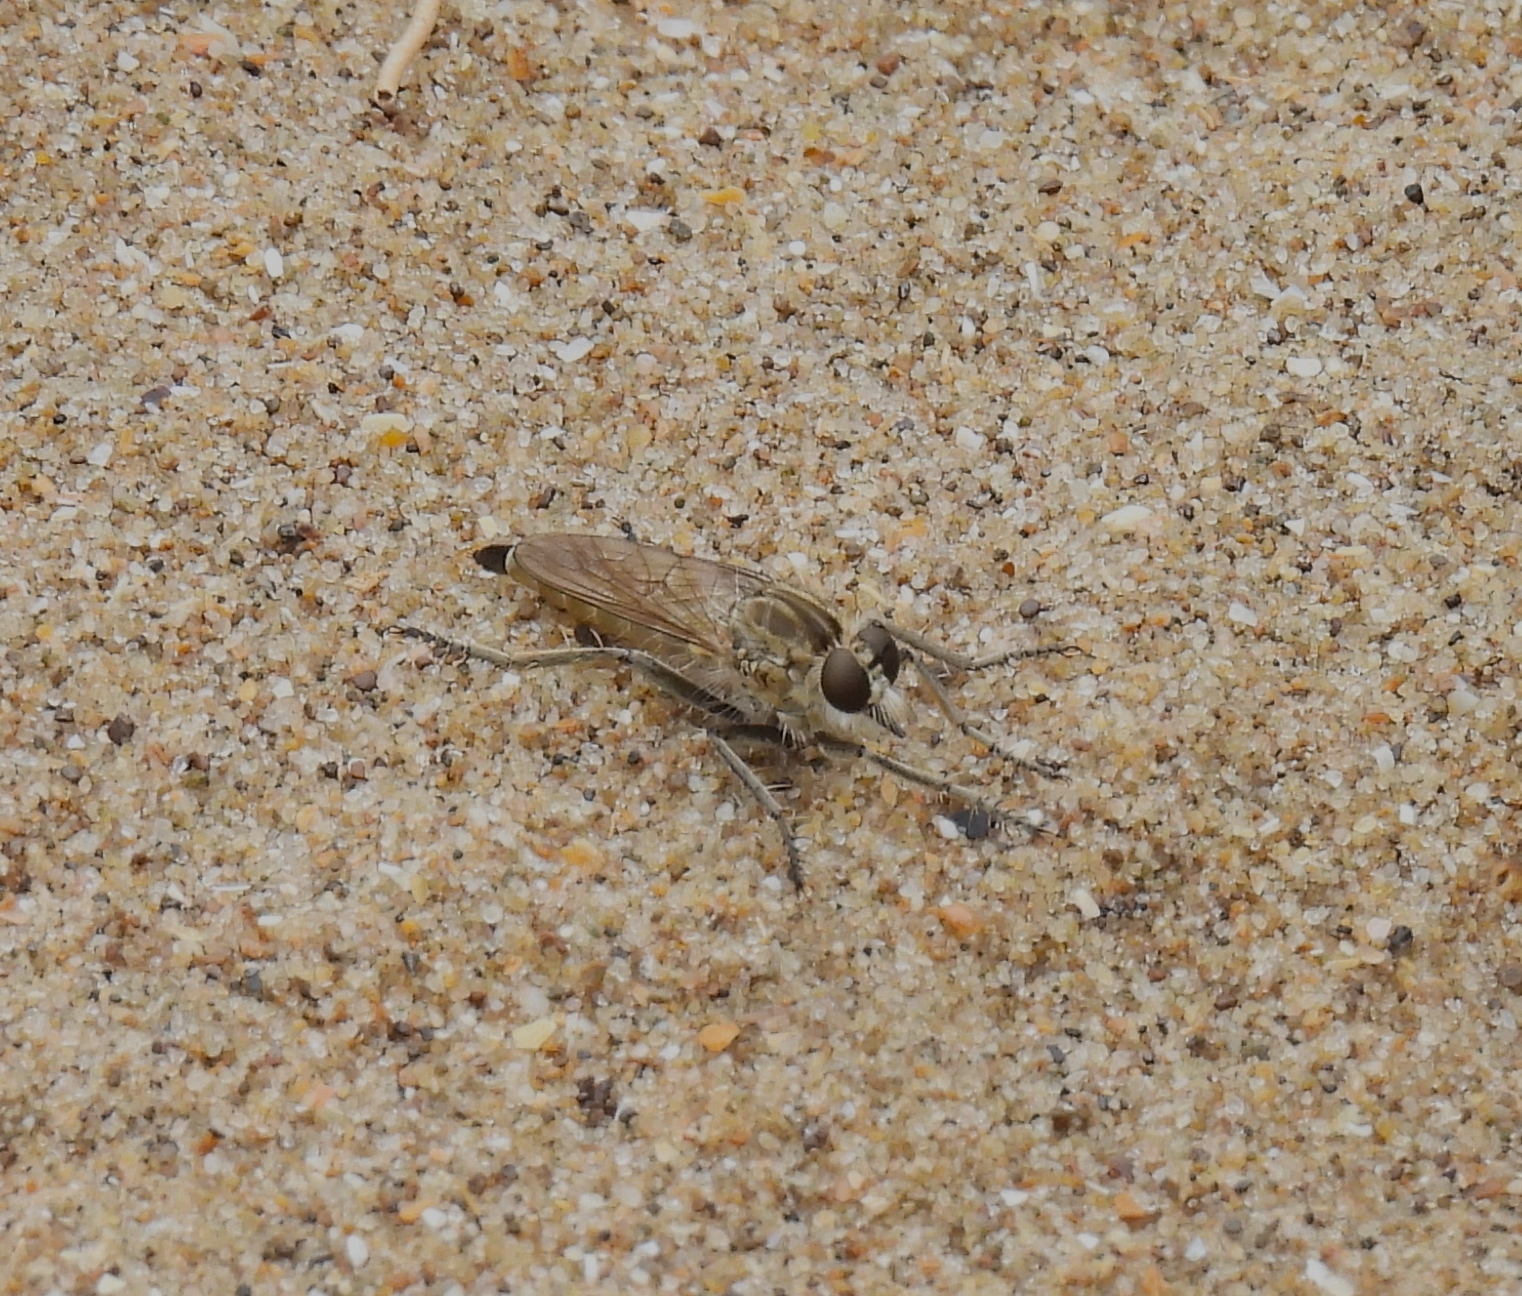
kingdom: Animalia
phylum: Arthropoda
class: Insecta
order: Diptera
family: Asilidae
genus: Philonicus
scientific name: Philonicus albiceps
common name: Dune robberfly
